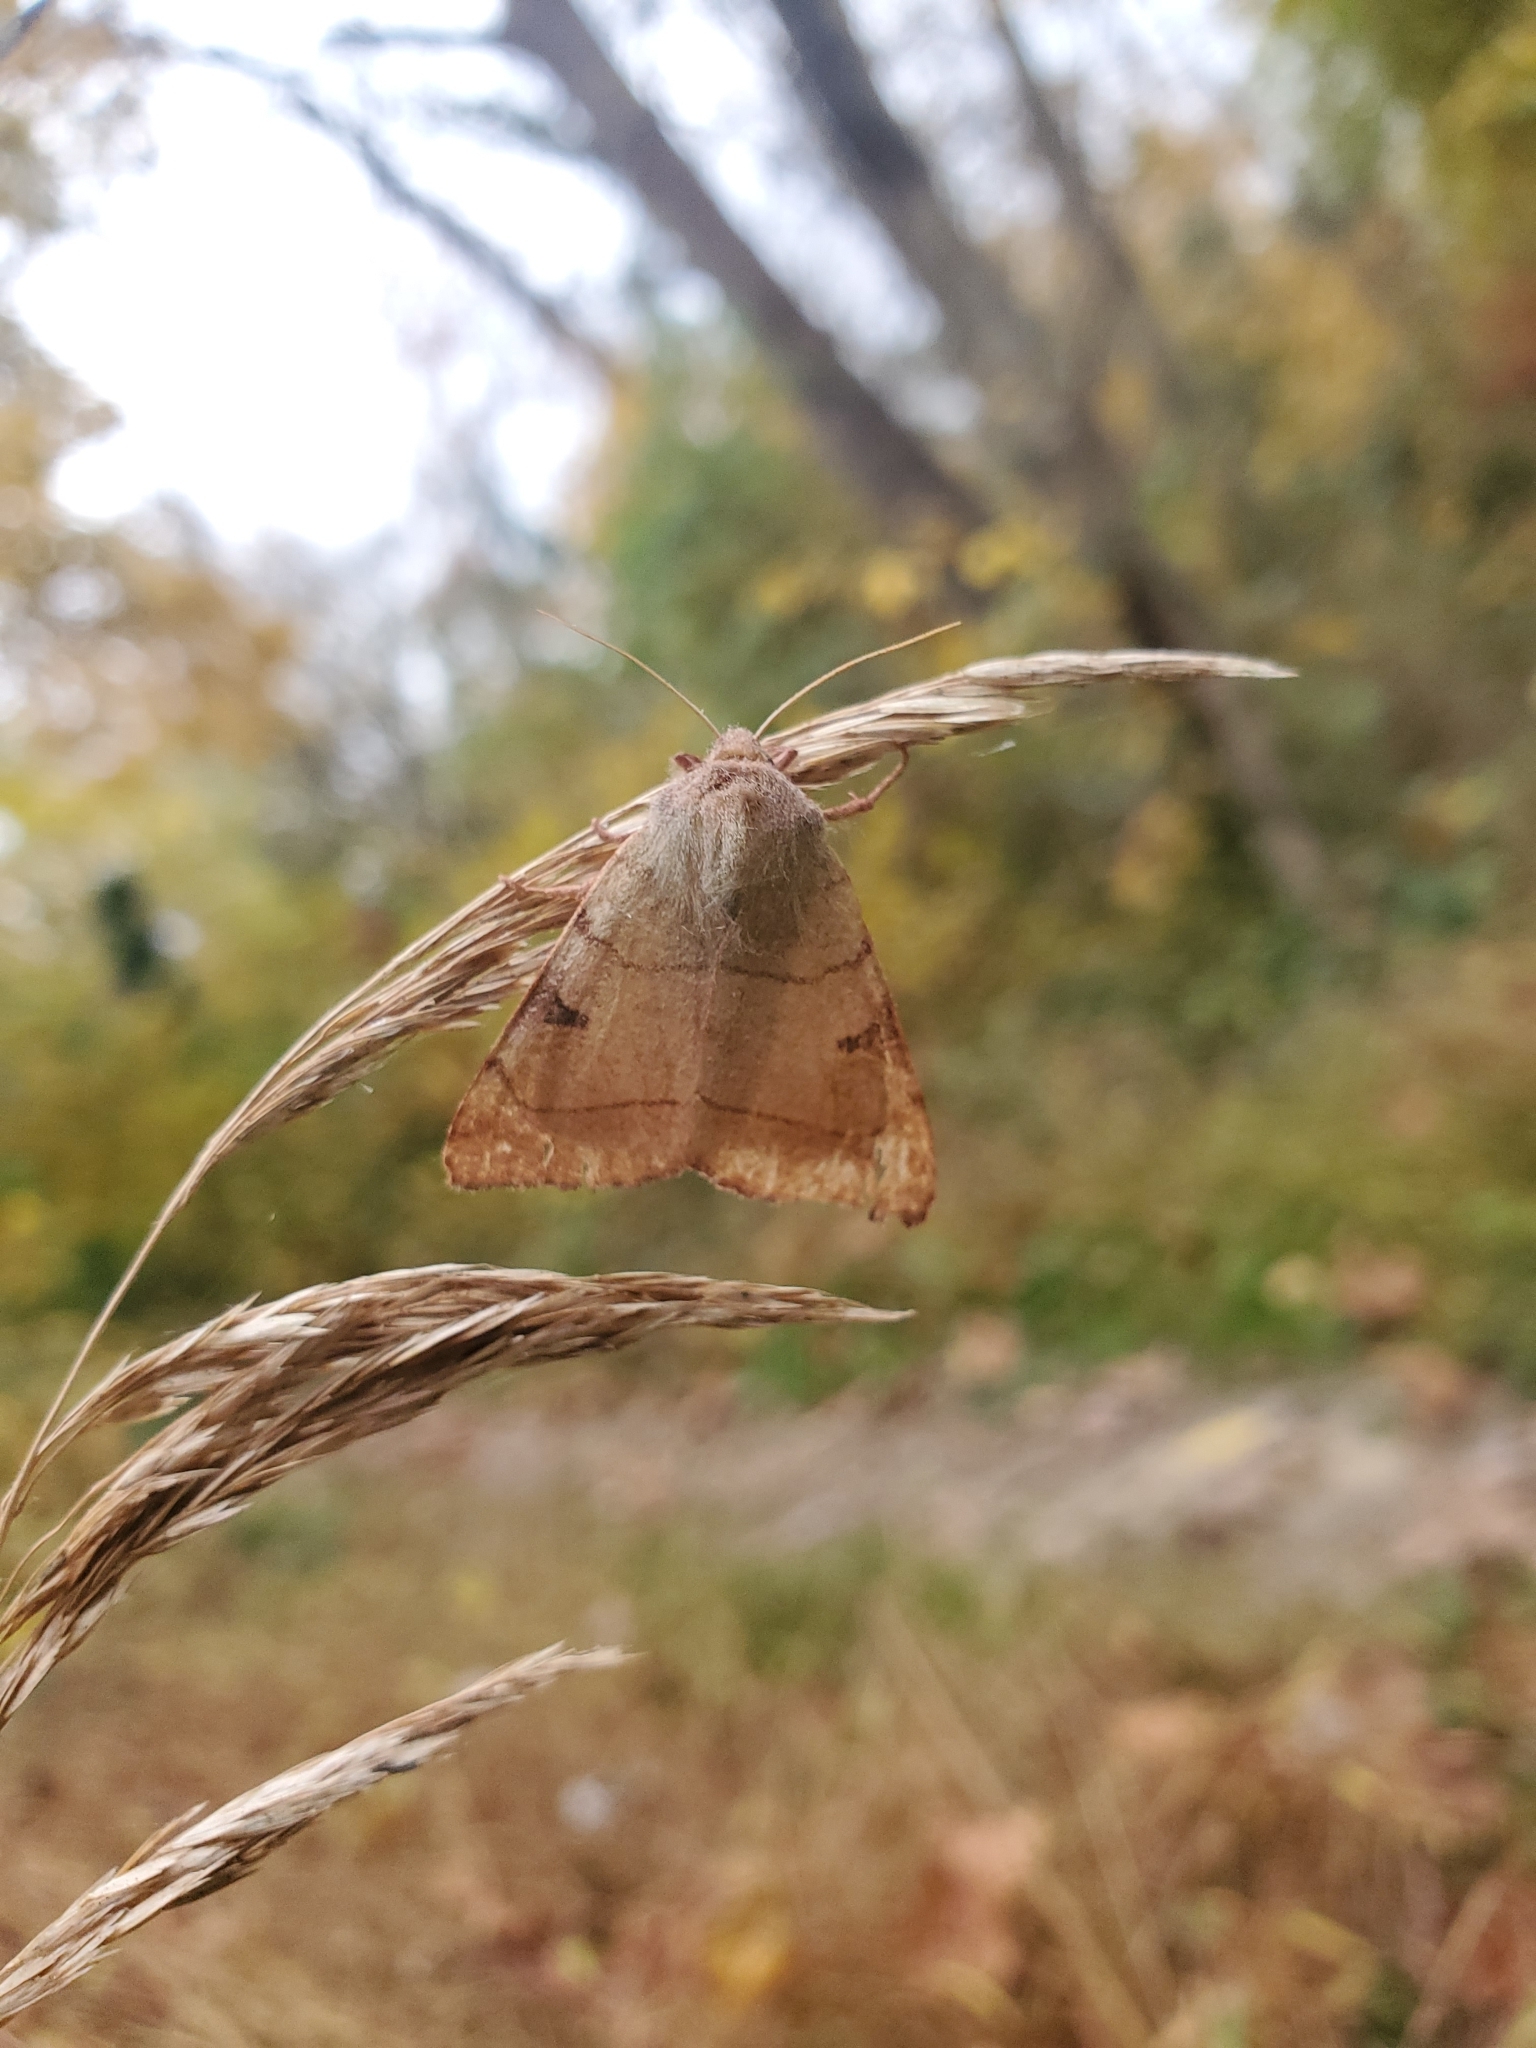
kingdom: Animalia
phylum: Arthropoda
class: Insecta
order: Lepidoptera
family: Noctuidae
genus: Choephora
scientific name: Choephora fungorum
